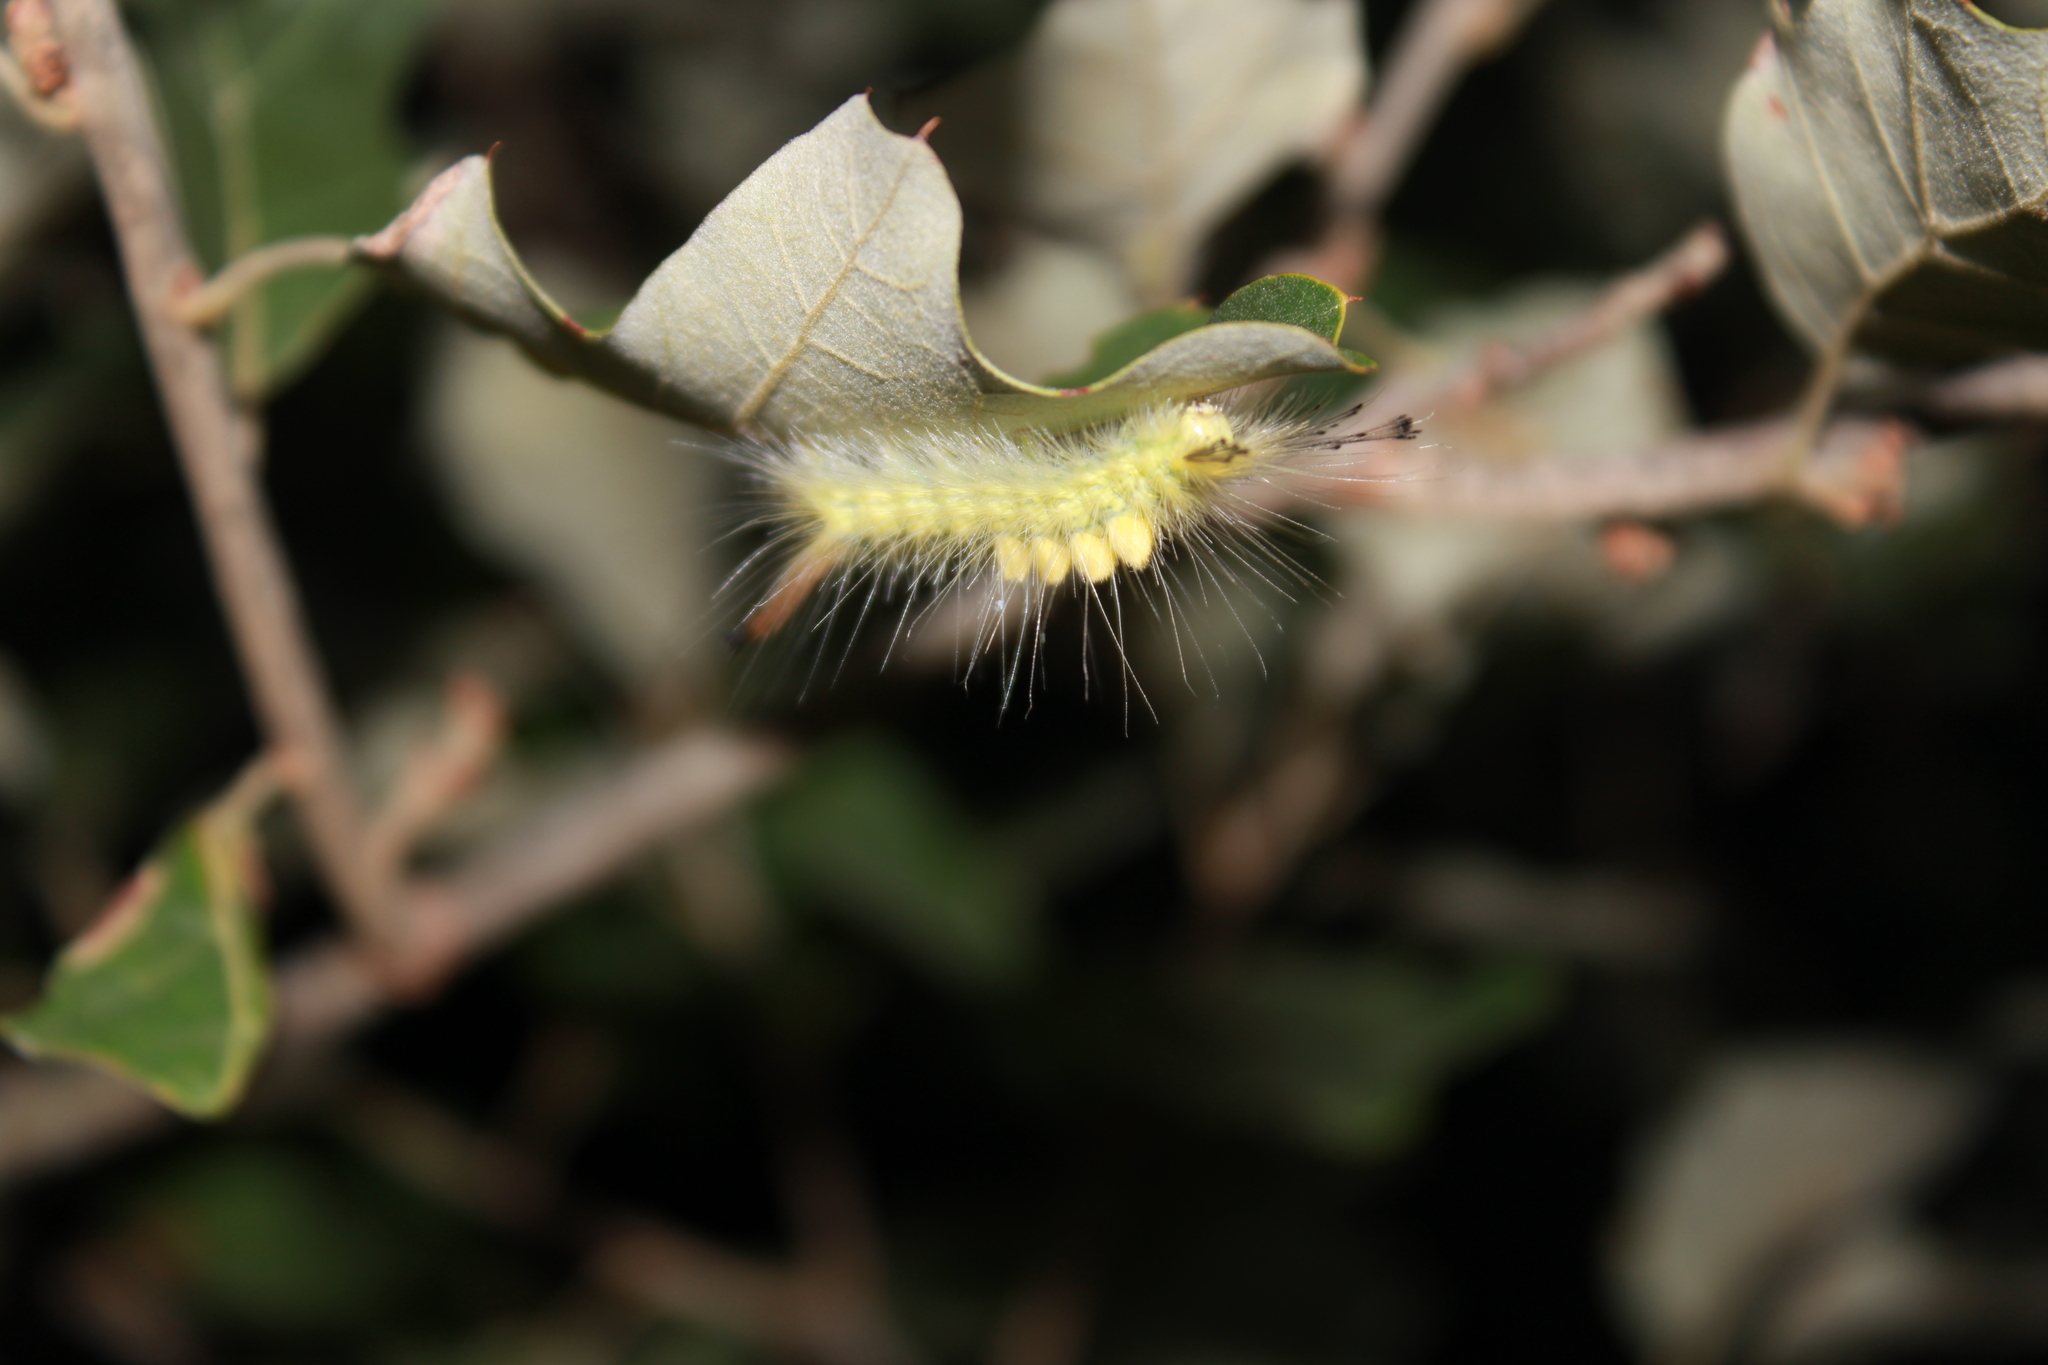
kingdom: Animalia
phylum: Arthropoda
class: Insecta
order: Lepidoptera
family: Erebidae
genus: Orgyia
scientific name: Orgyia leucostigma
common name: White-marked tussock moth
